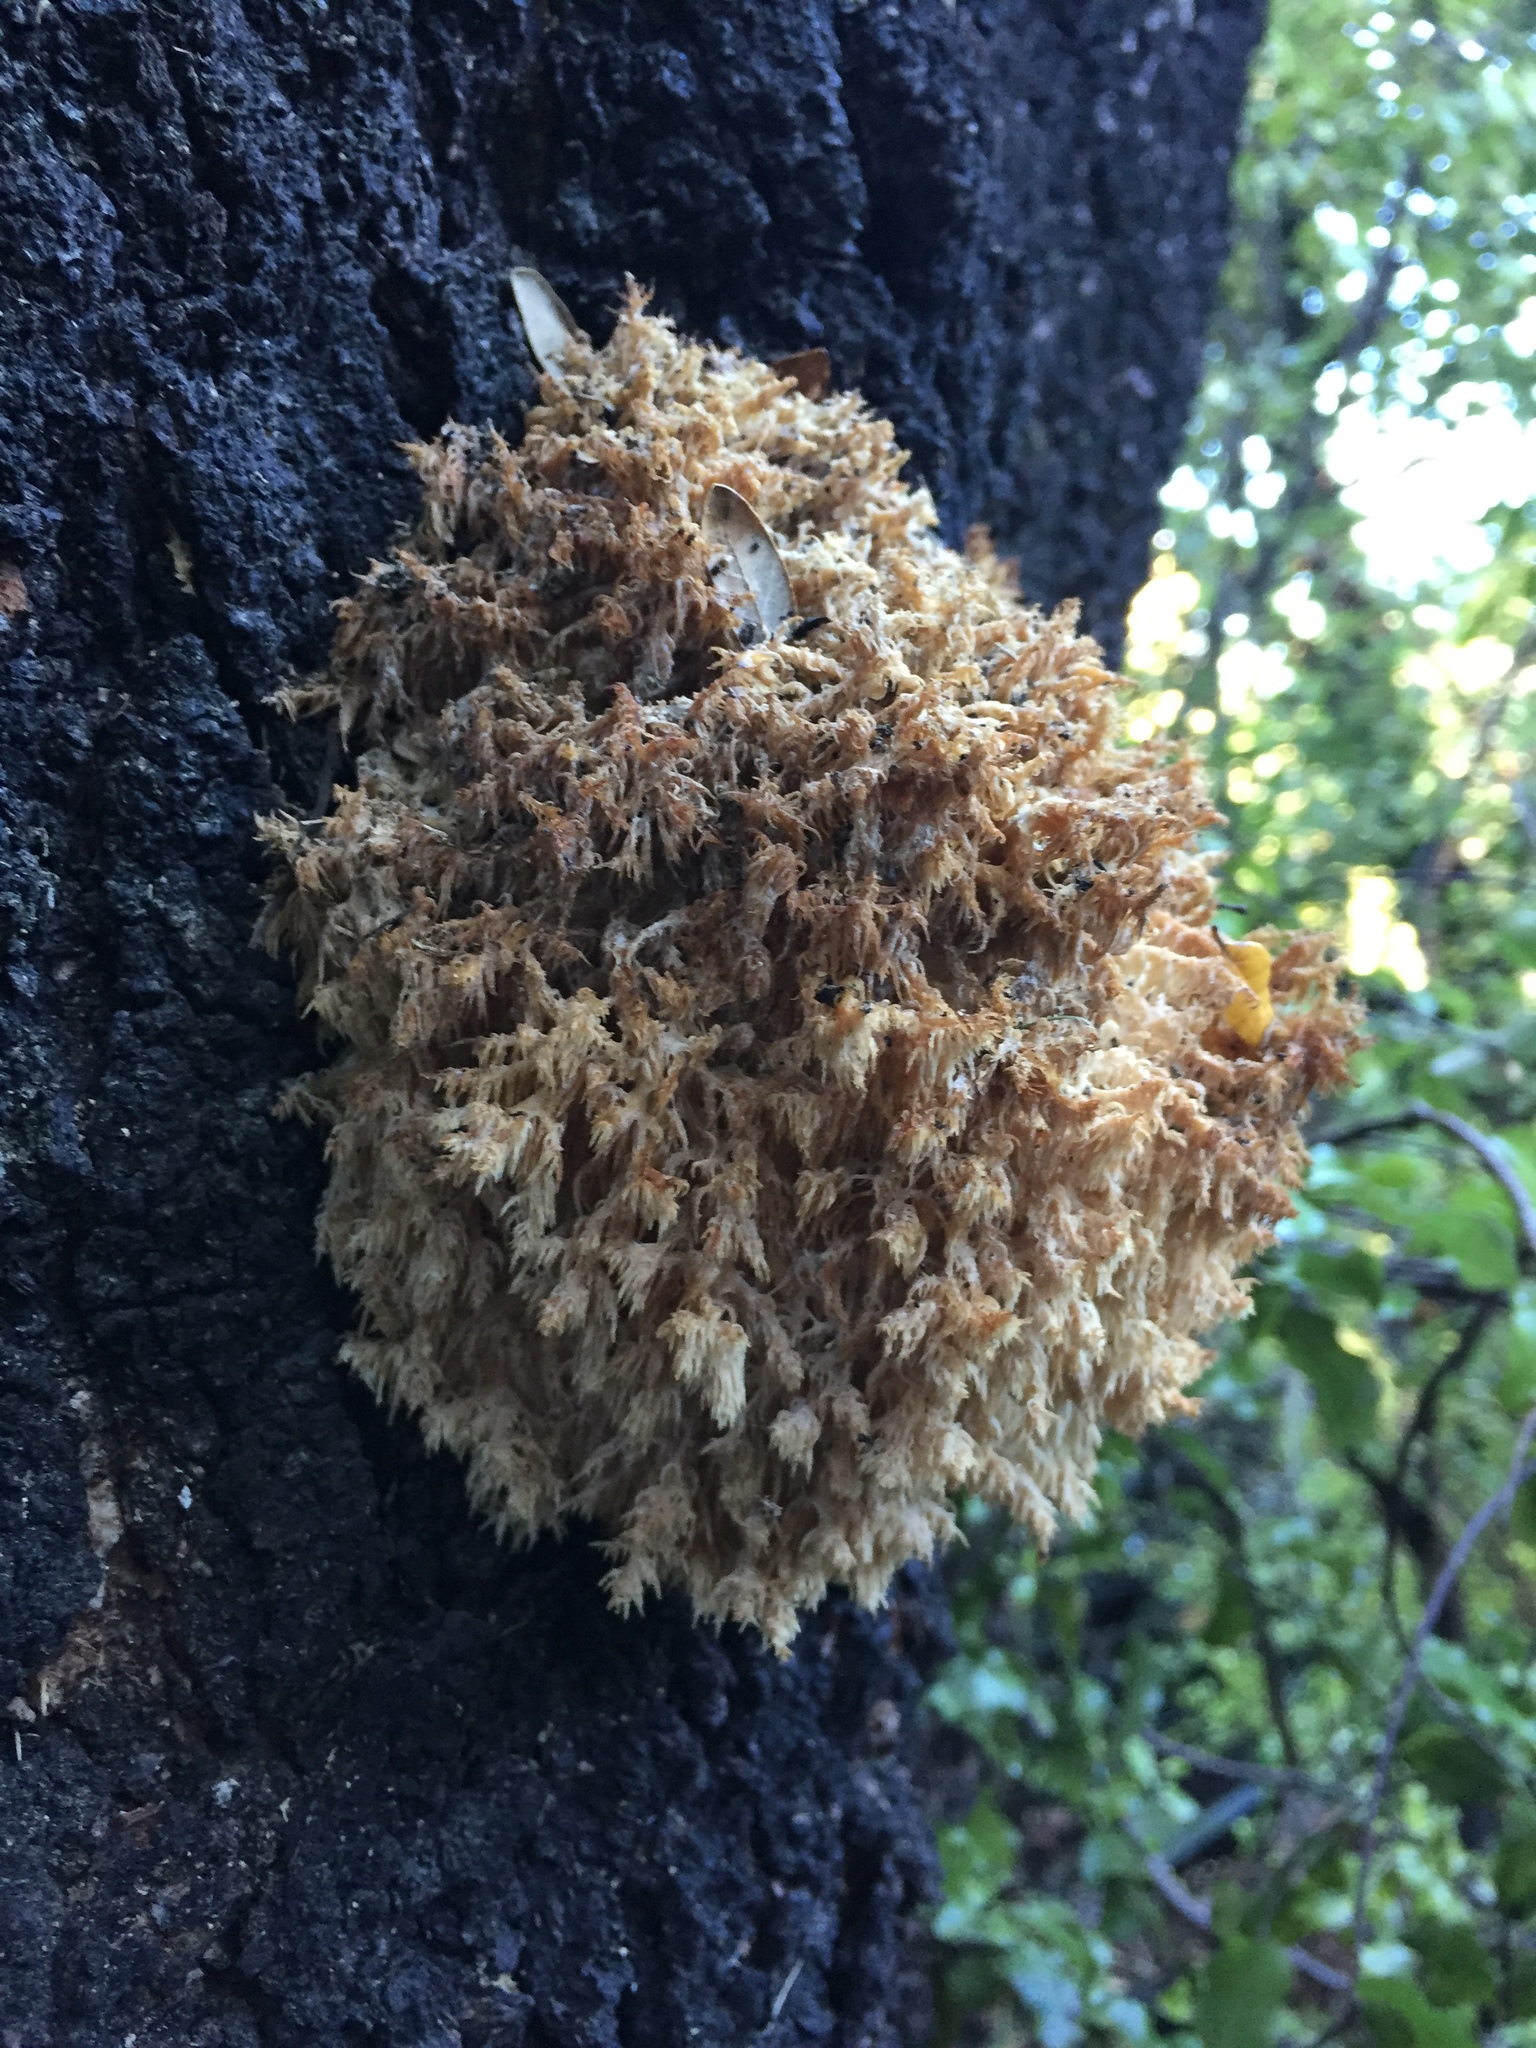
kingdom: Fungi
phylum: Basidiomycota
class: Agaricomycetes
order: Russulales
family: Hericiaceae
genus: Hericium
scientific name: Hericium novae-zealandiae
